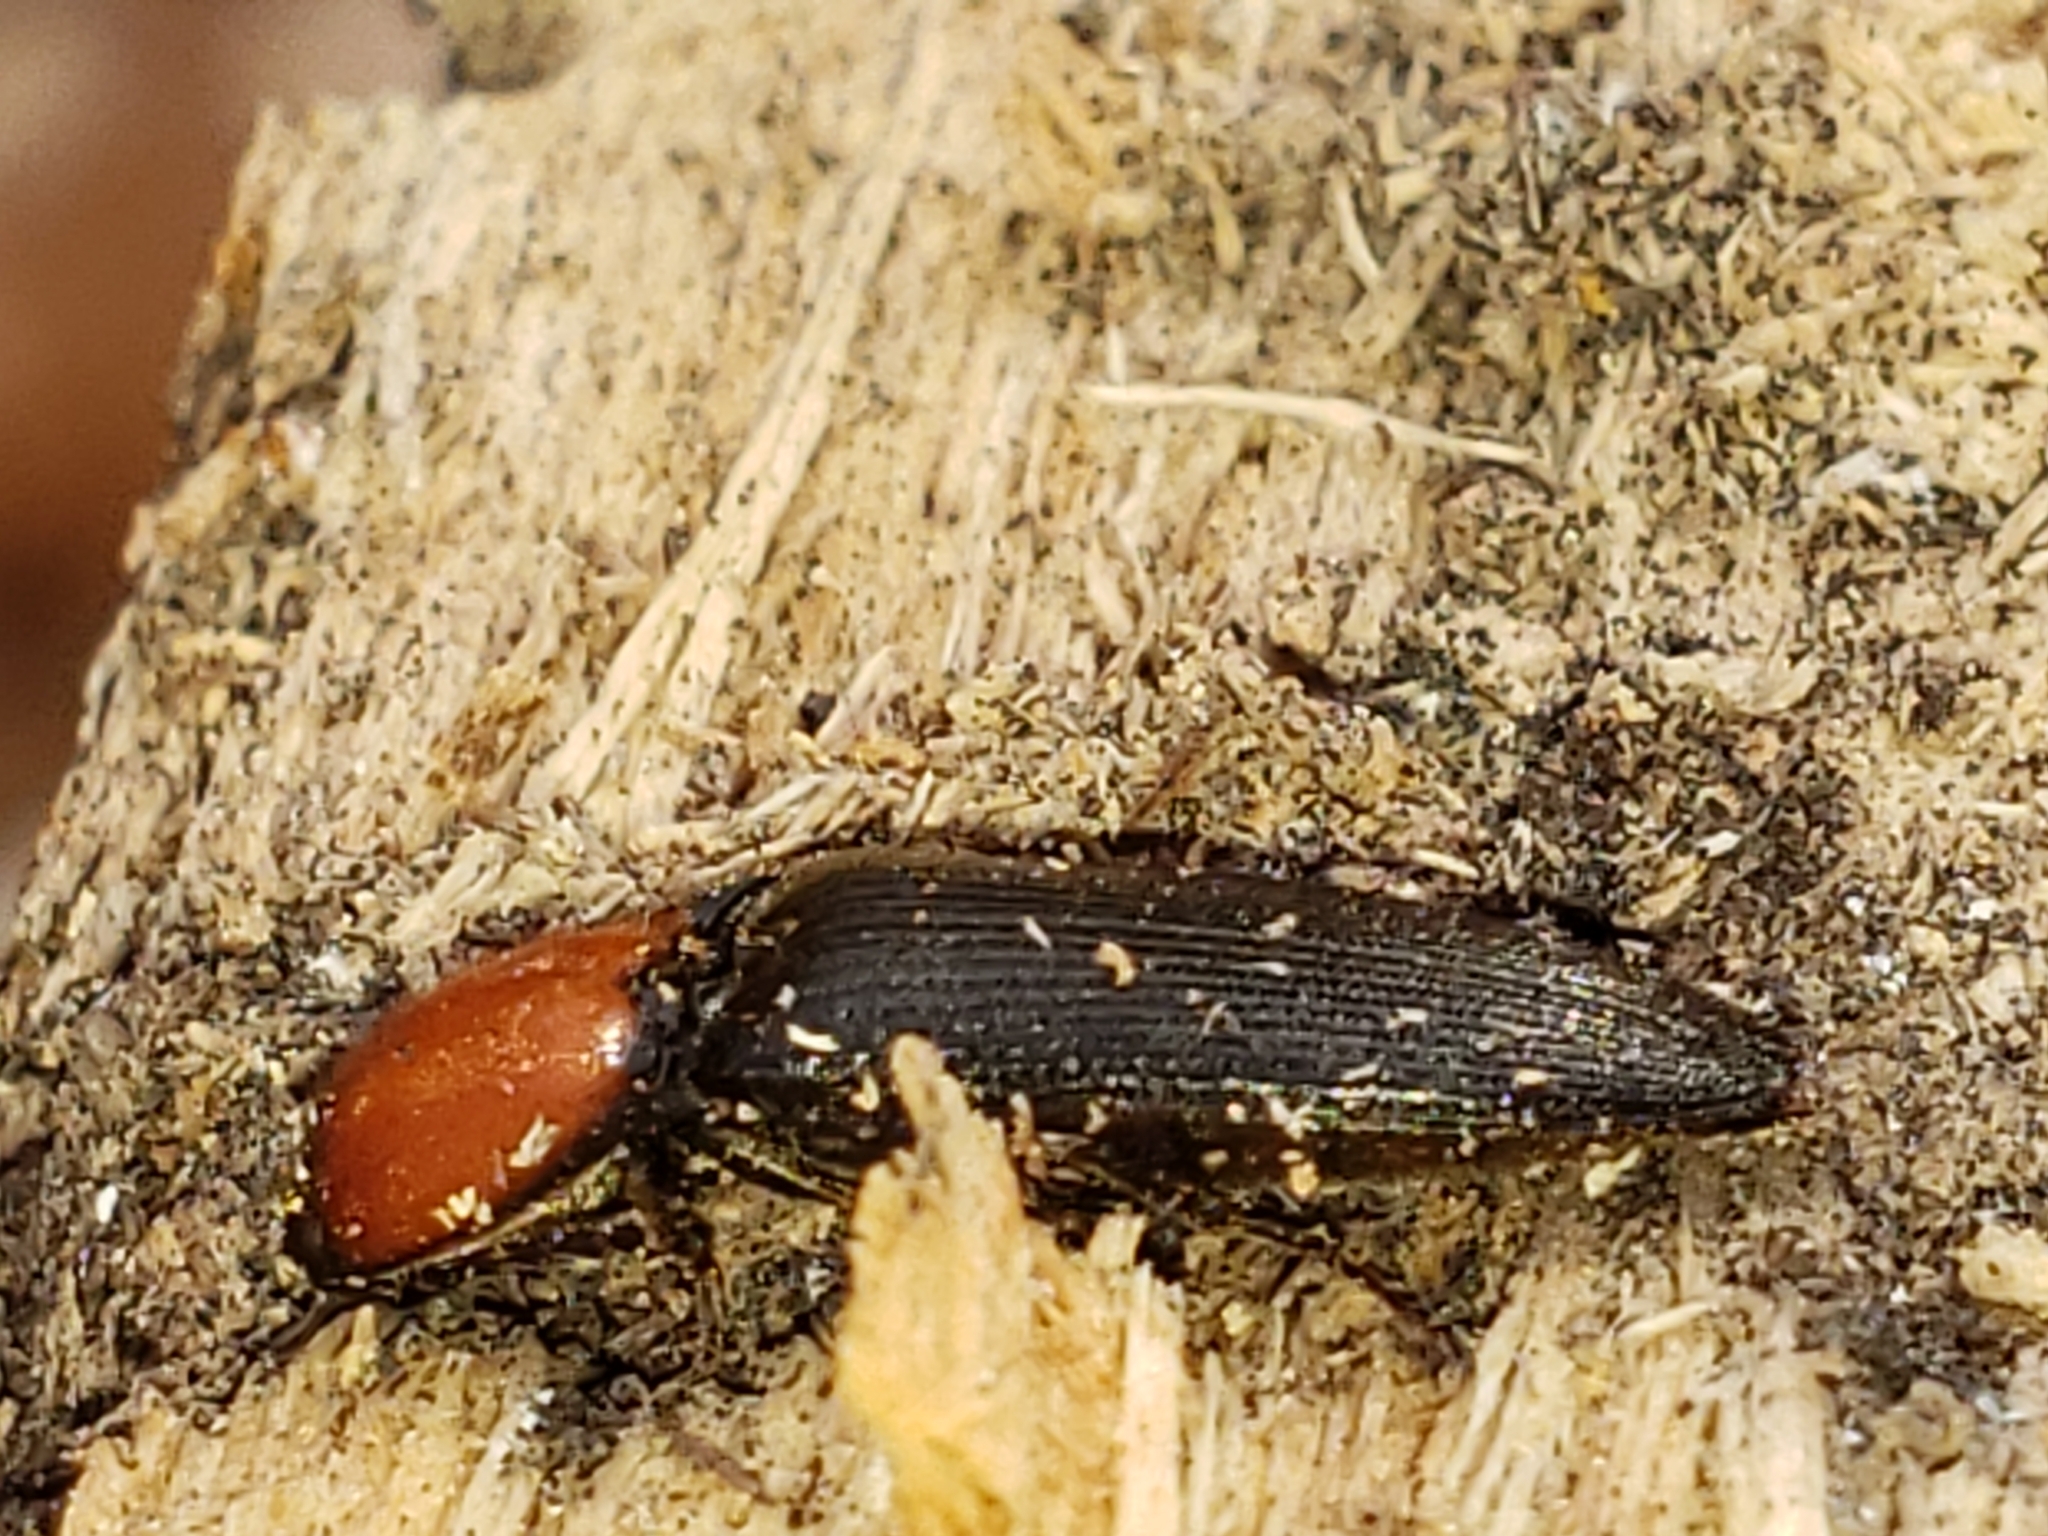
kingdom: Animalia
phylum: Arthropoda
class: Insecta
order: Coleoptera
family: Elateridae
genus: Ampedus
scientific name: Ampedus rubricollis
